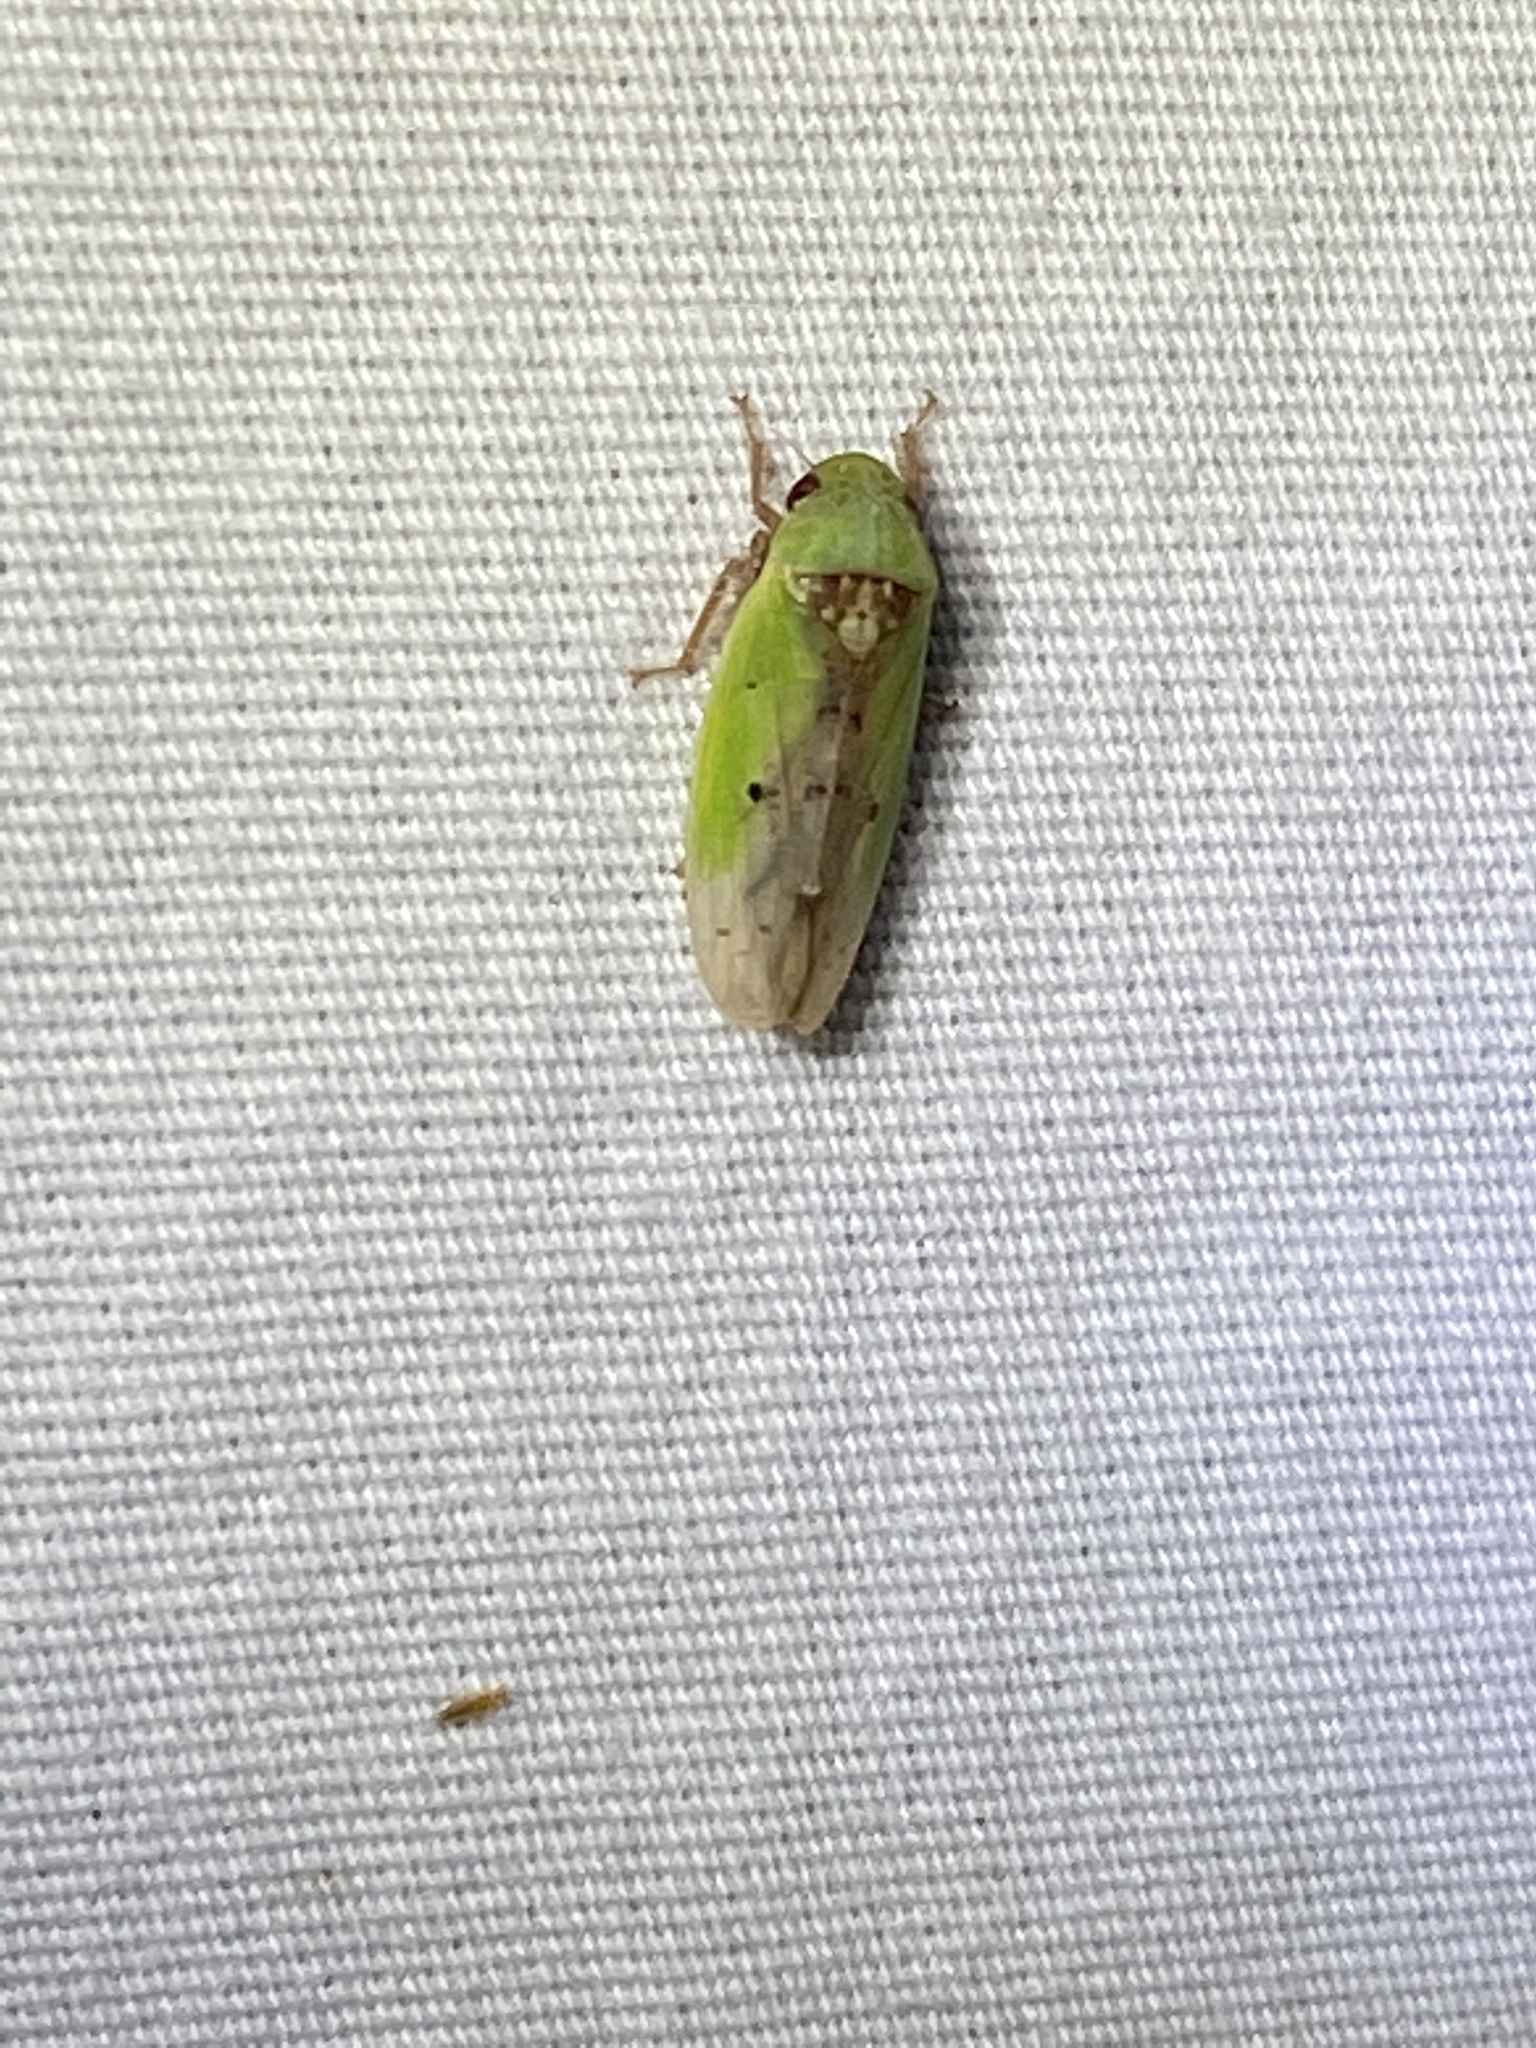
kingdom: Animalia
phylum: Arthropoda
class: Insecta
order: Hemiptera
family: Cicadellidae
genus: Ponana
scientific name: Ponana pectoralis
